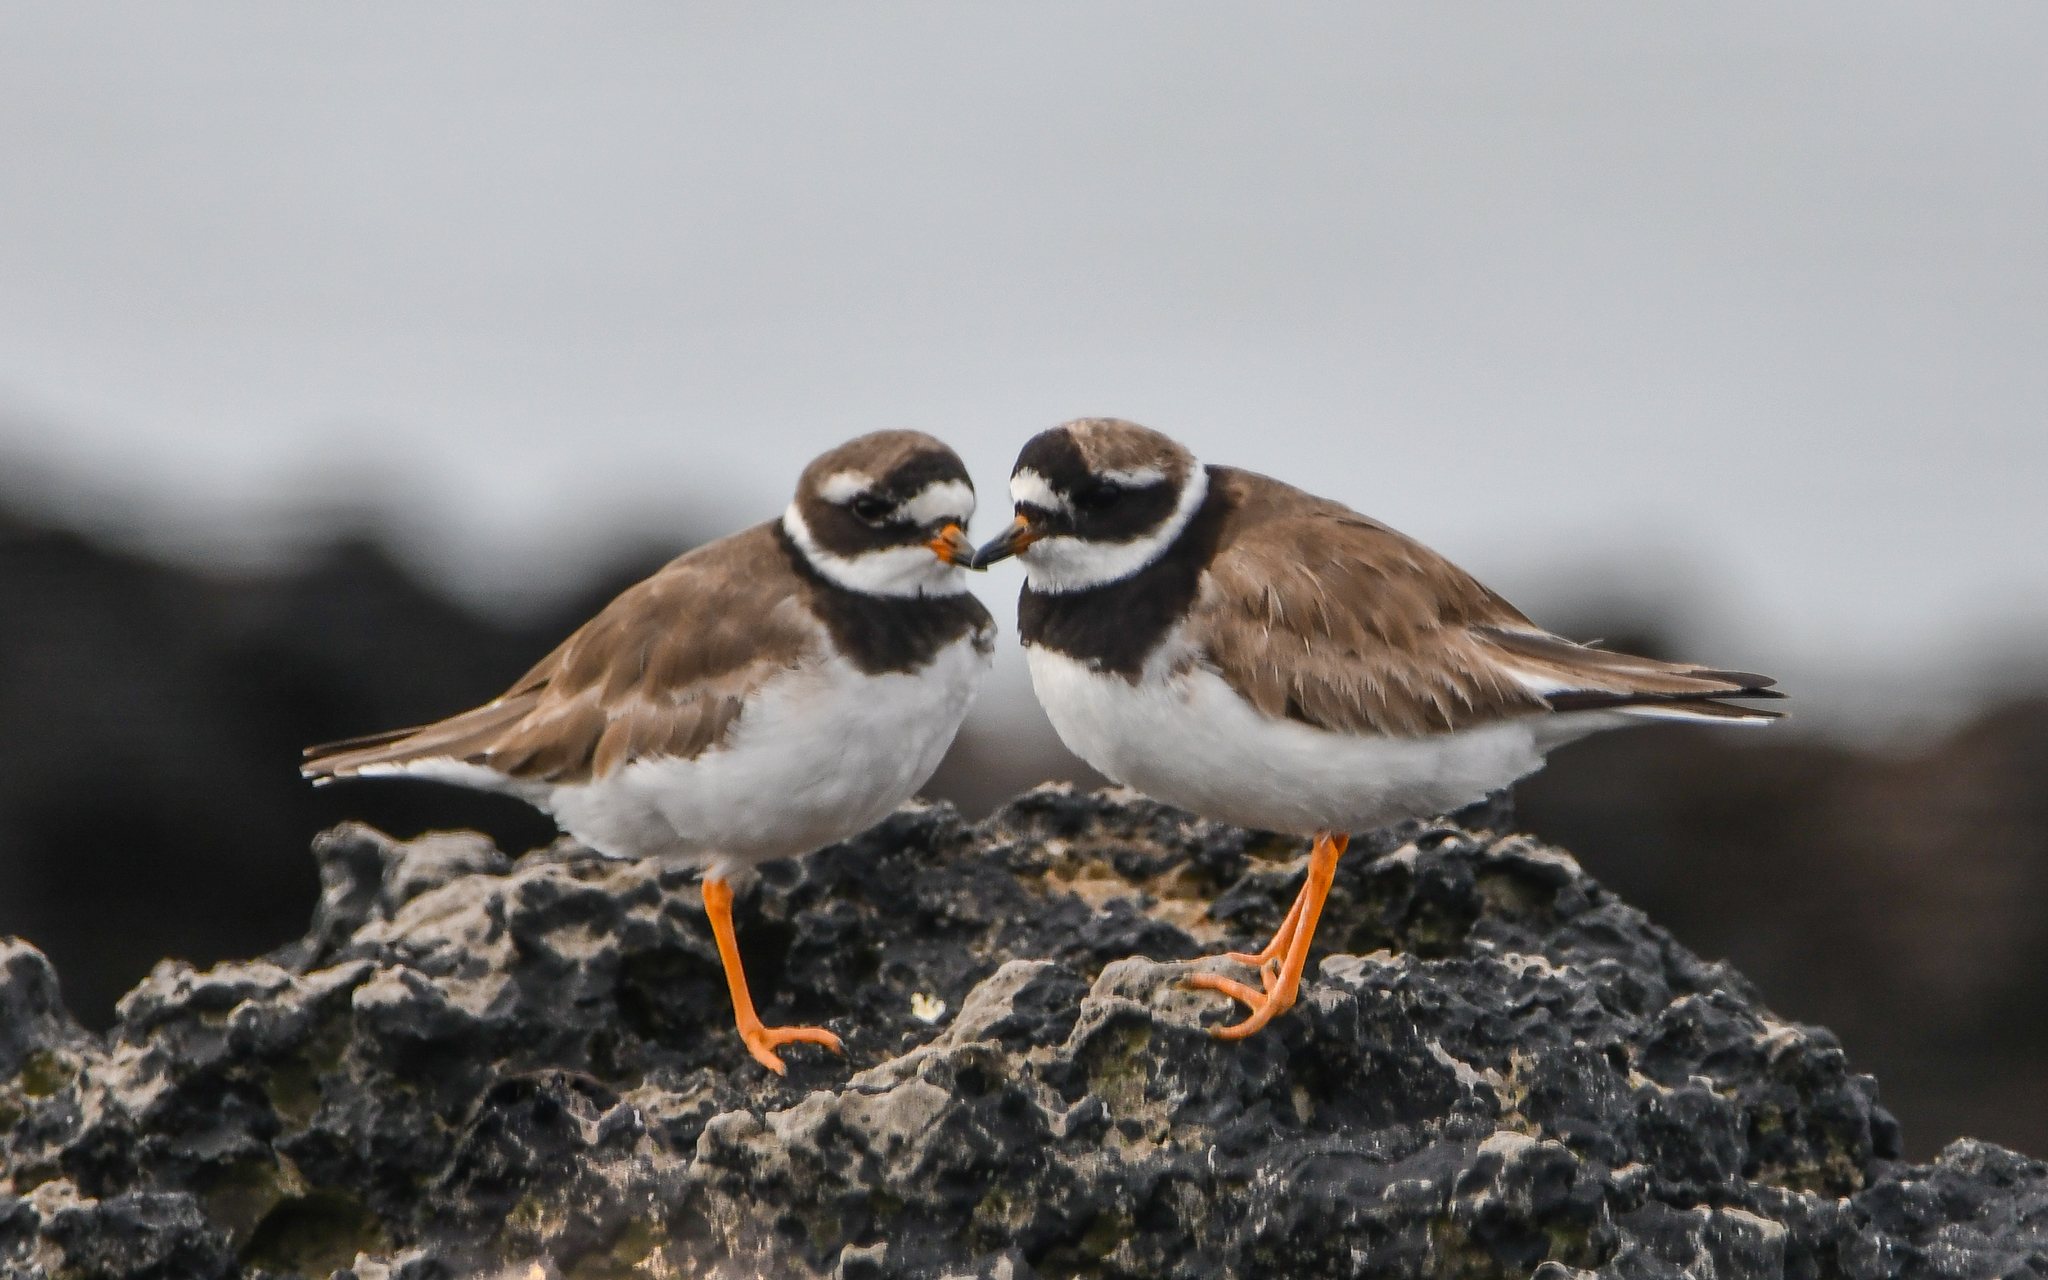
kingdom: Animalia
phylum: Chordata
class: Aves
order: Charadriiformes
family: Charadriidae
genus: Charadrius
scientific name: Charadrius hiaticula
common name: Common ringed plover
